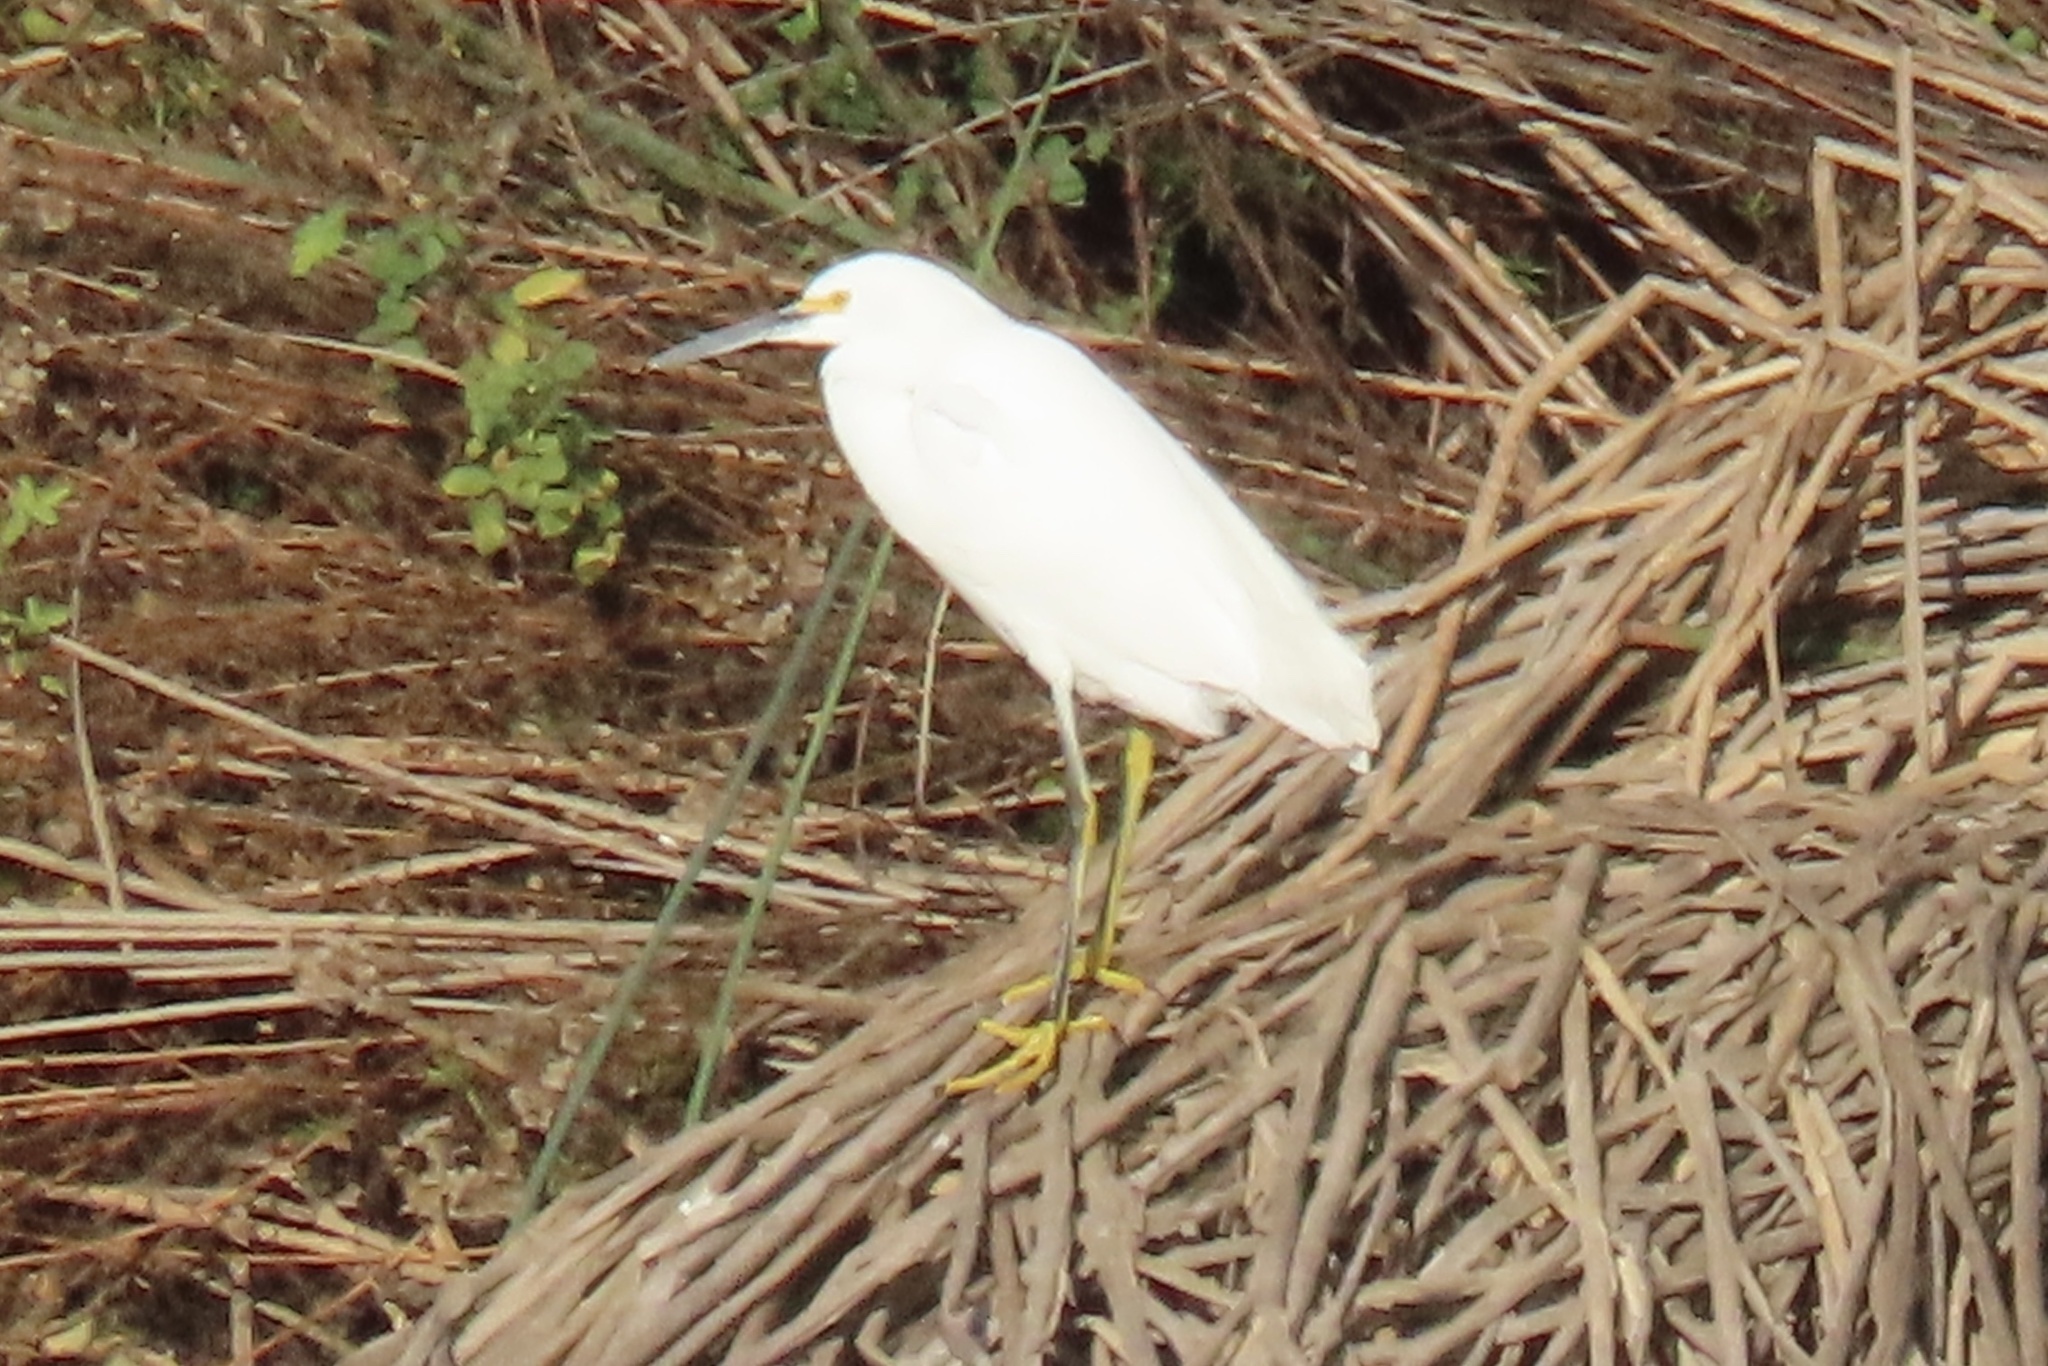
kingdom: Animalia
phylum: Chordata
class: Aves
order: Pelecaniformes
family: Ardeidae
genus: Egretta
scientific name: Egretta thula
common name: Snowy egret
